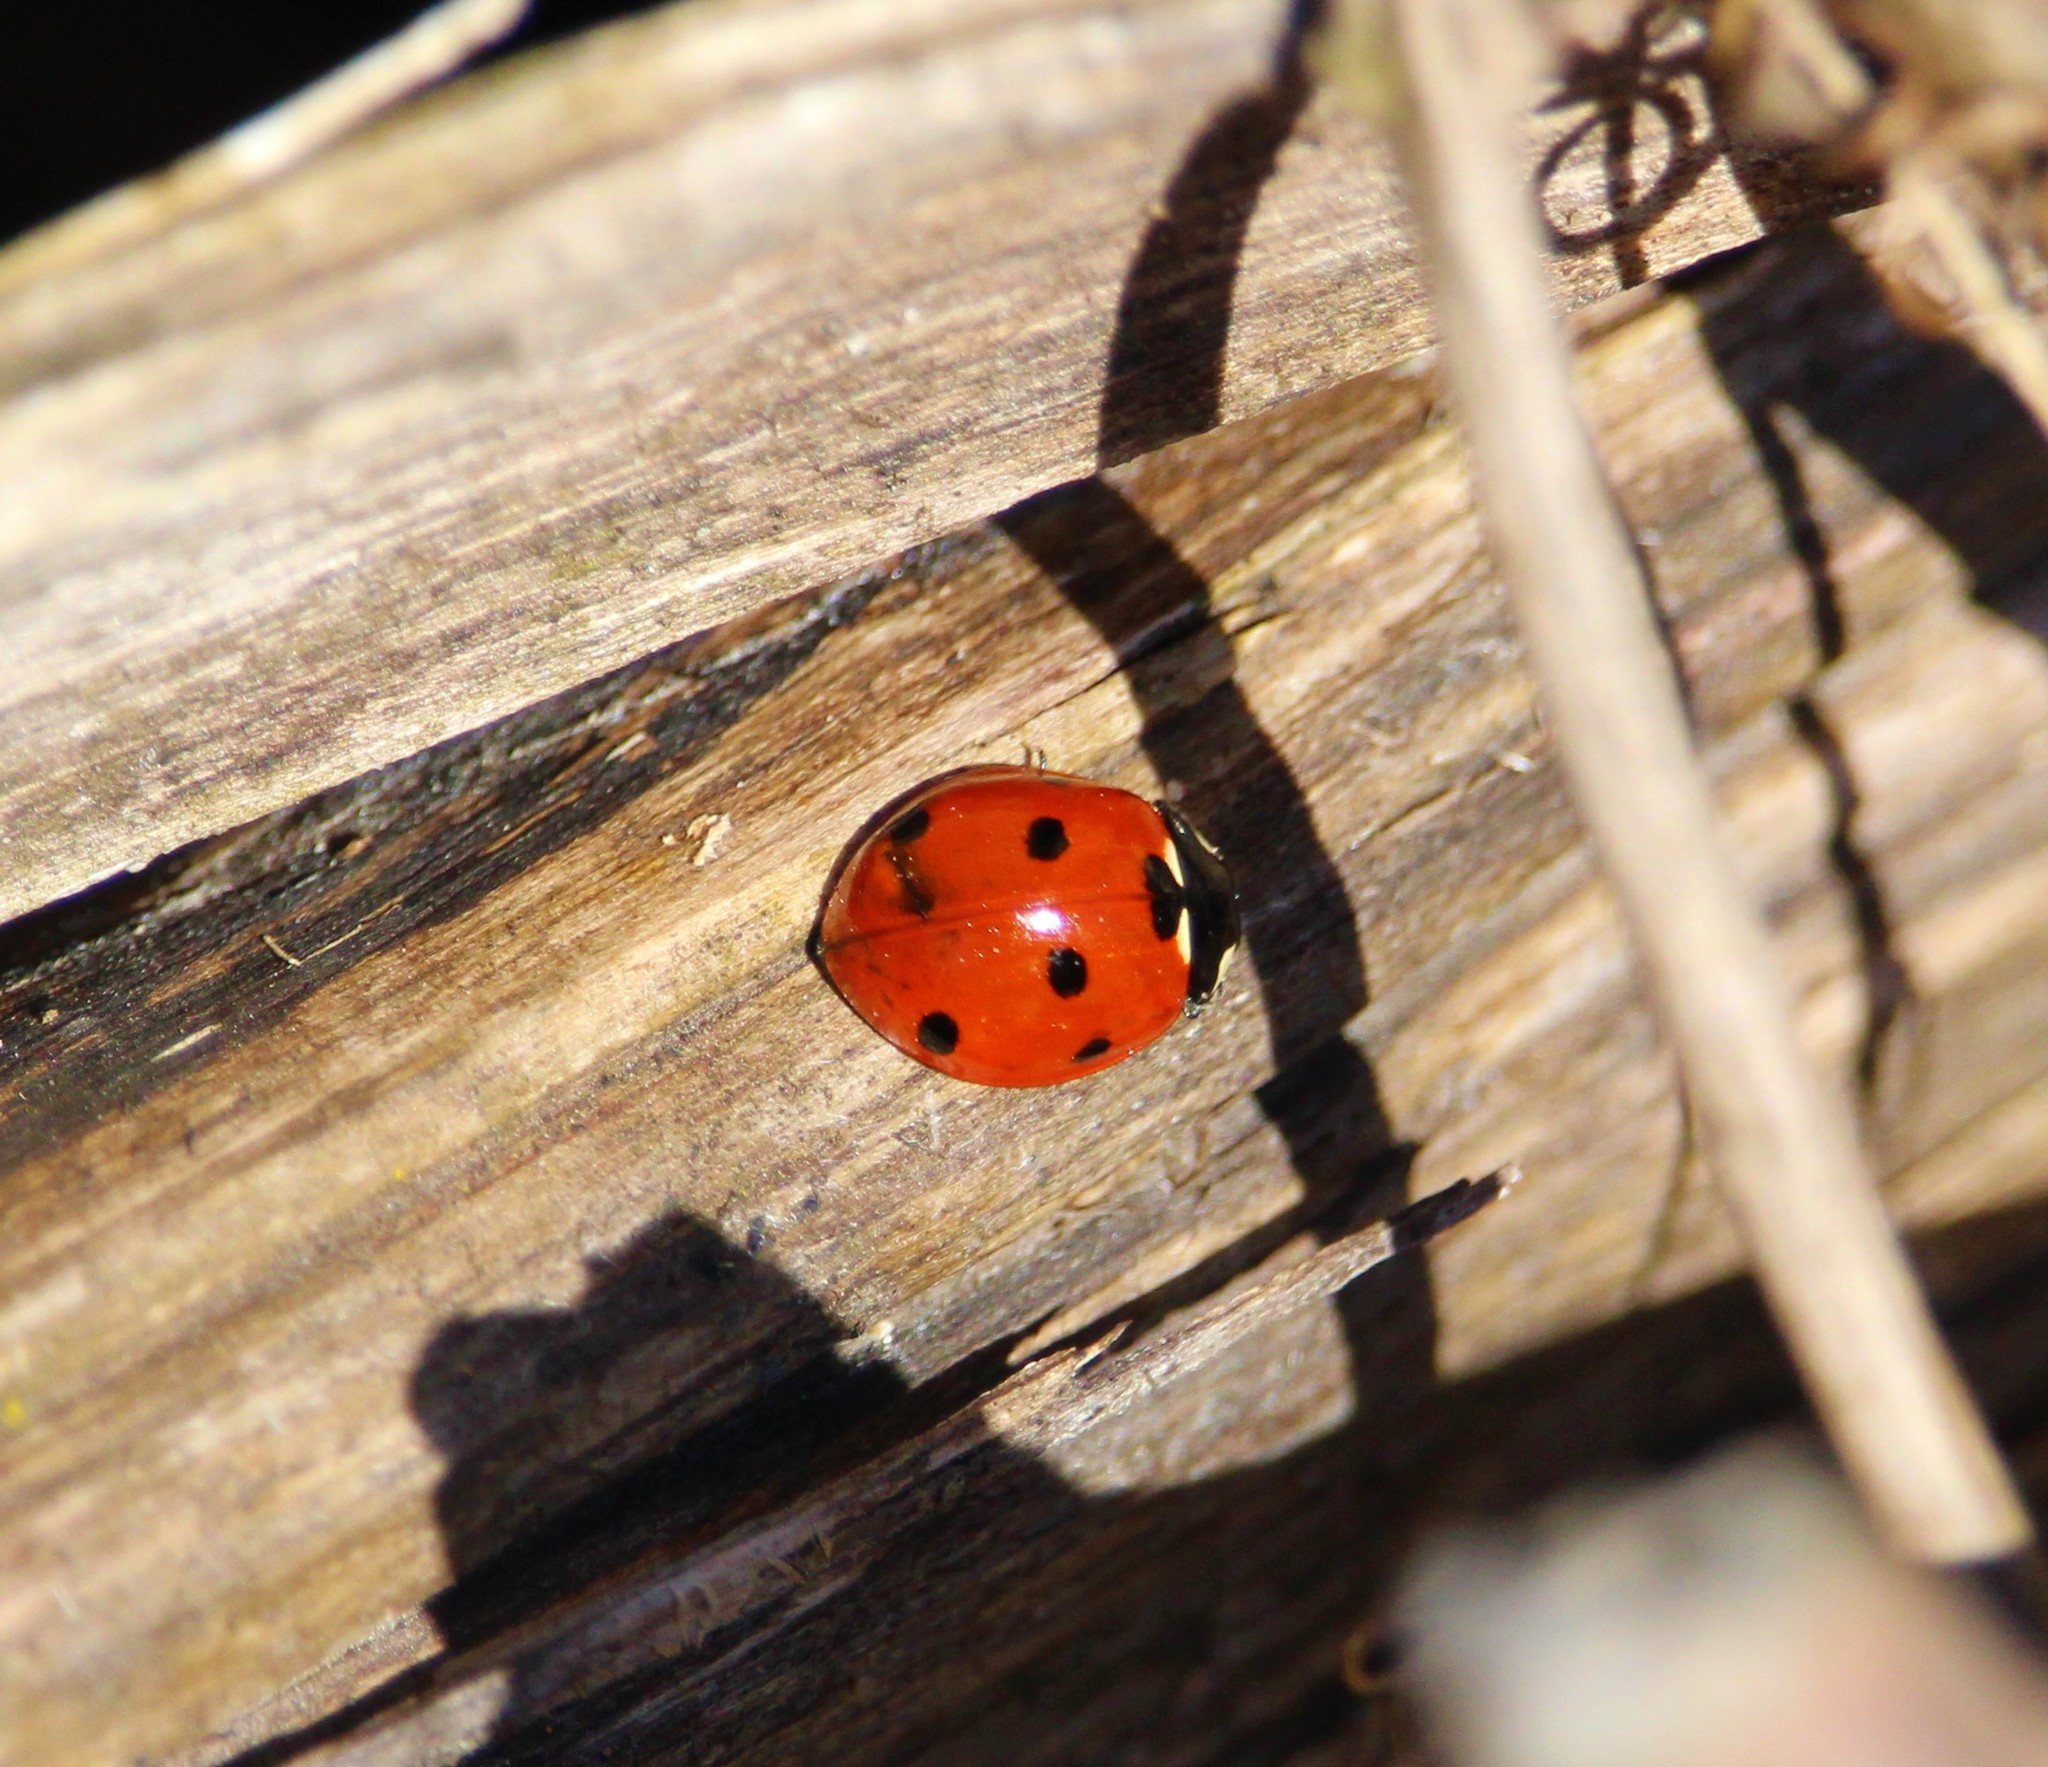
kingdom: Animalia
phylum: Arthropoda
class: Insecta
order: Coleoptera
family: Coccinellidae
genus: Coccinella
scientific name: Coccinella septempunctata
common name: Sevenspotted lady beetle
